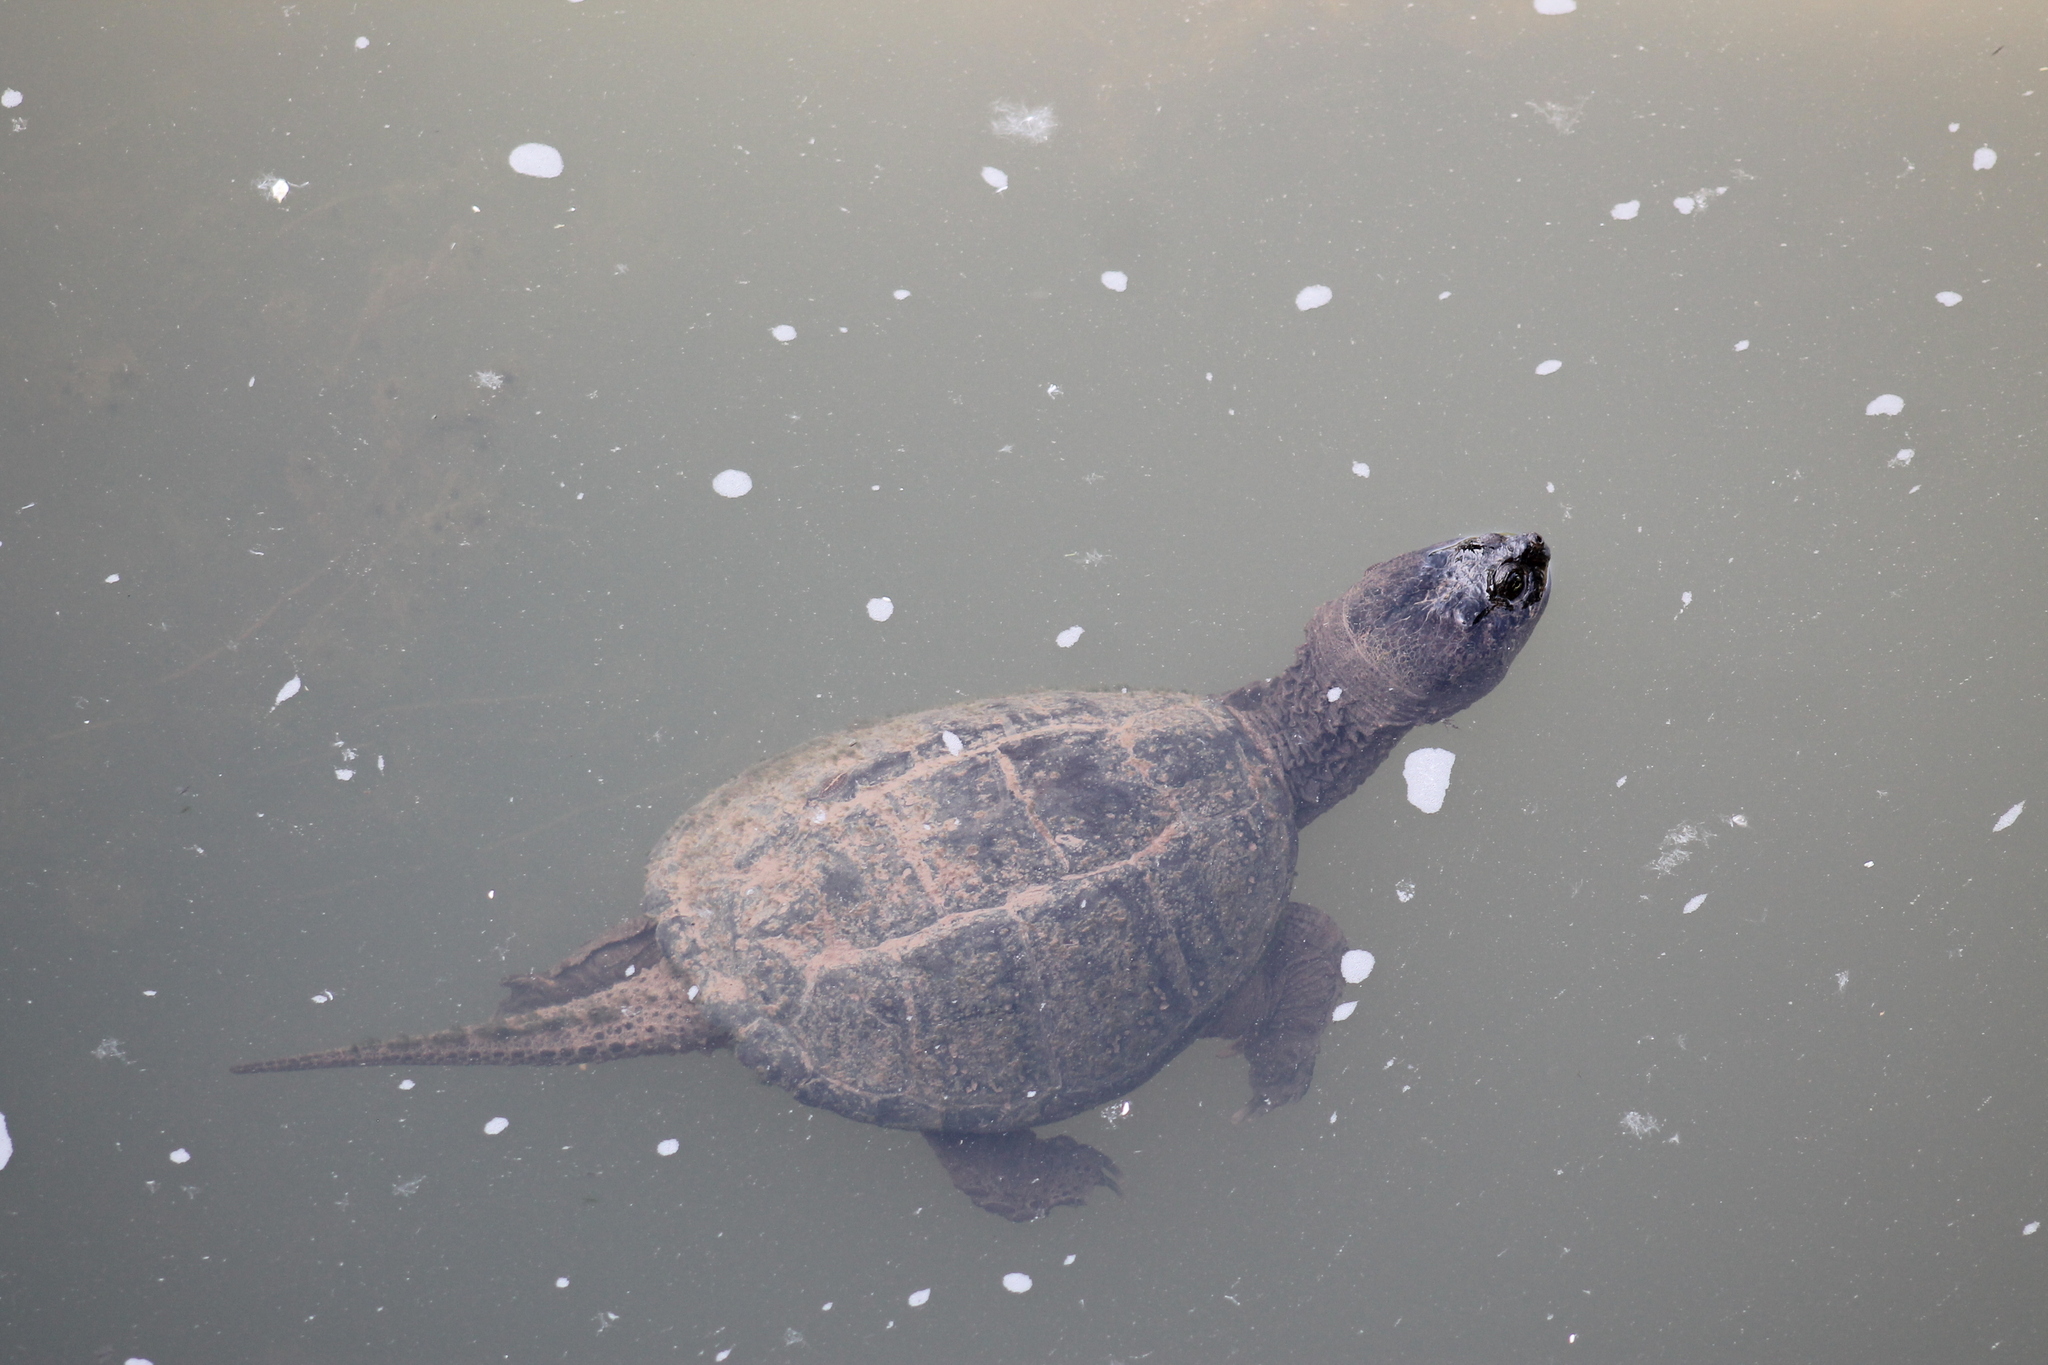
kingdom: Animalia
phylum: Chordata
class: Testudines
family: Chelydridae
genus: Chelydra
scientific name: Chelydra serpentina
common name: Common snapping turtle
